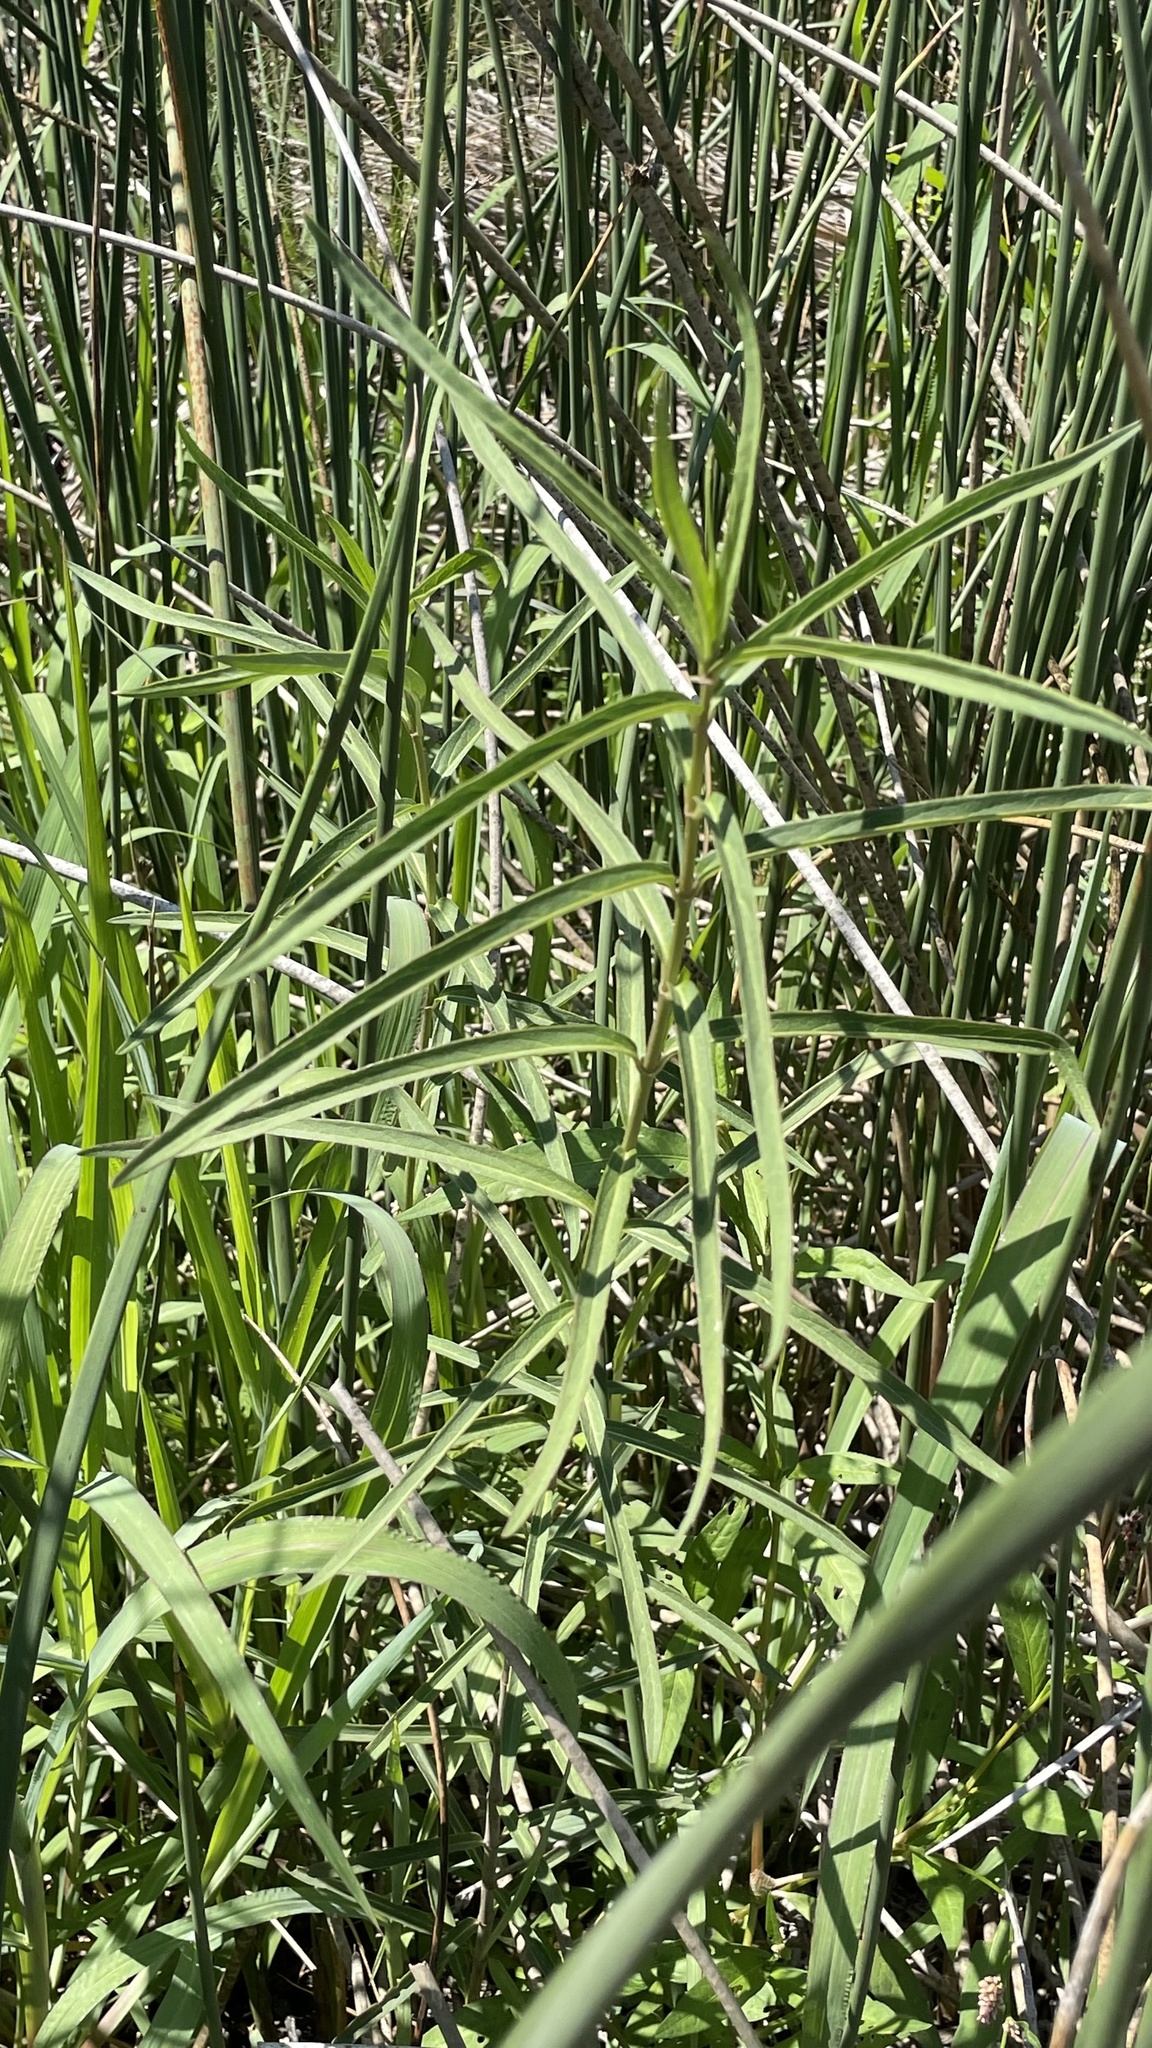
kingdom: Plantae
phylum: Tracheophyta
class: Magnoliopsida
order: Gentianales
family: Apocynaceae
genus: Asclepias
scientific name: Asclepias incarnata
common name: Swamp milkweed
